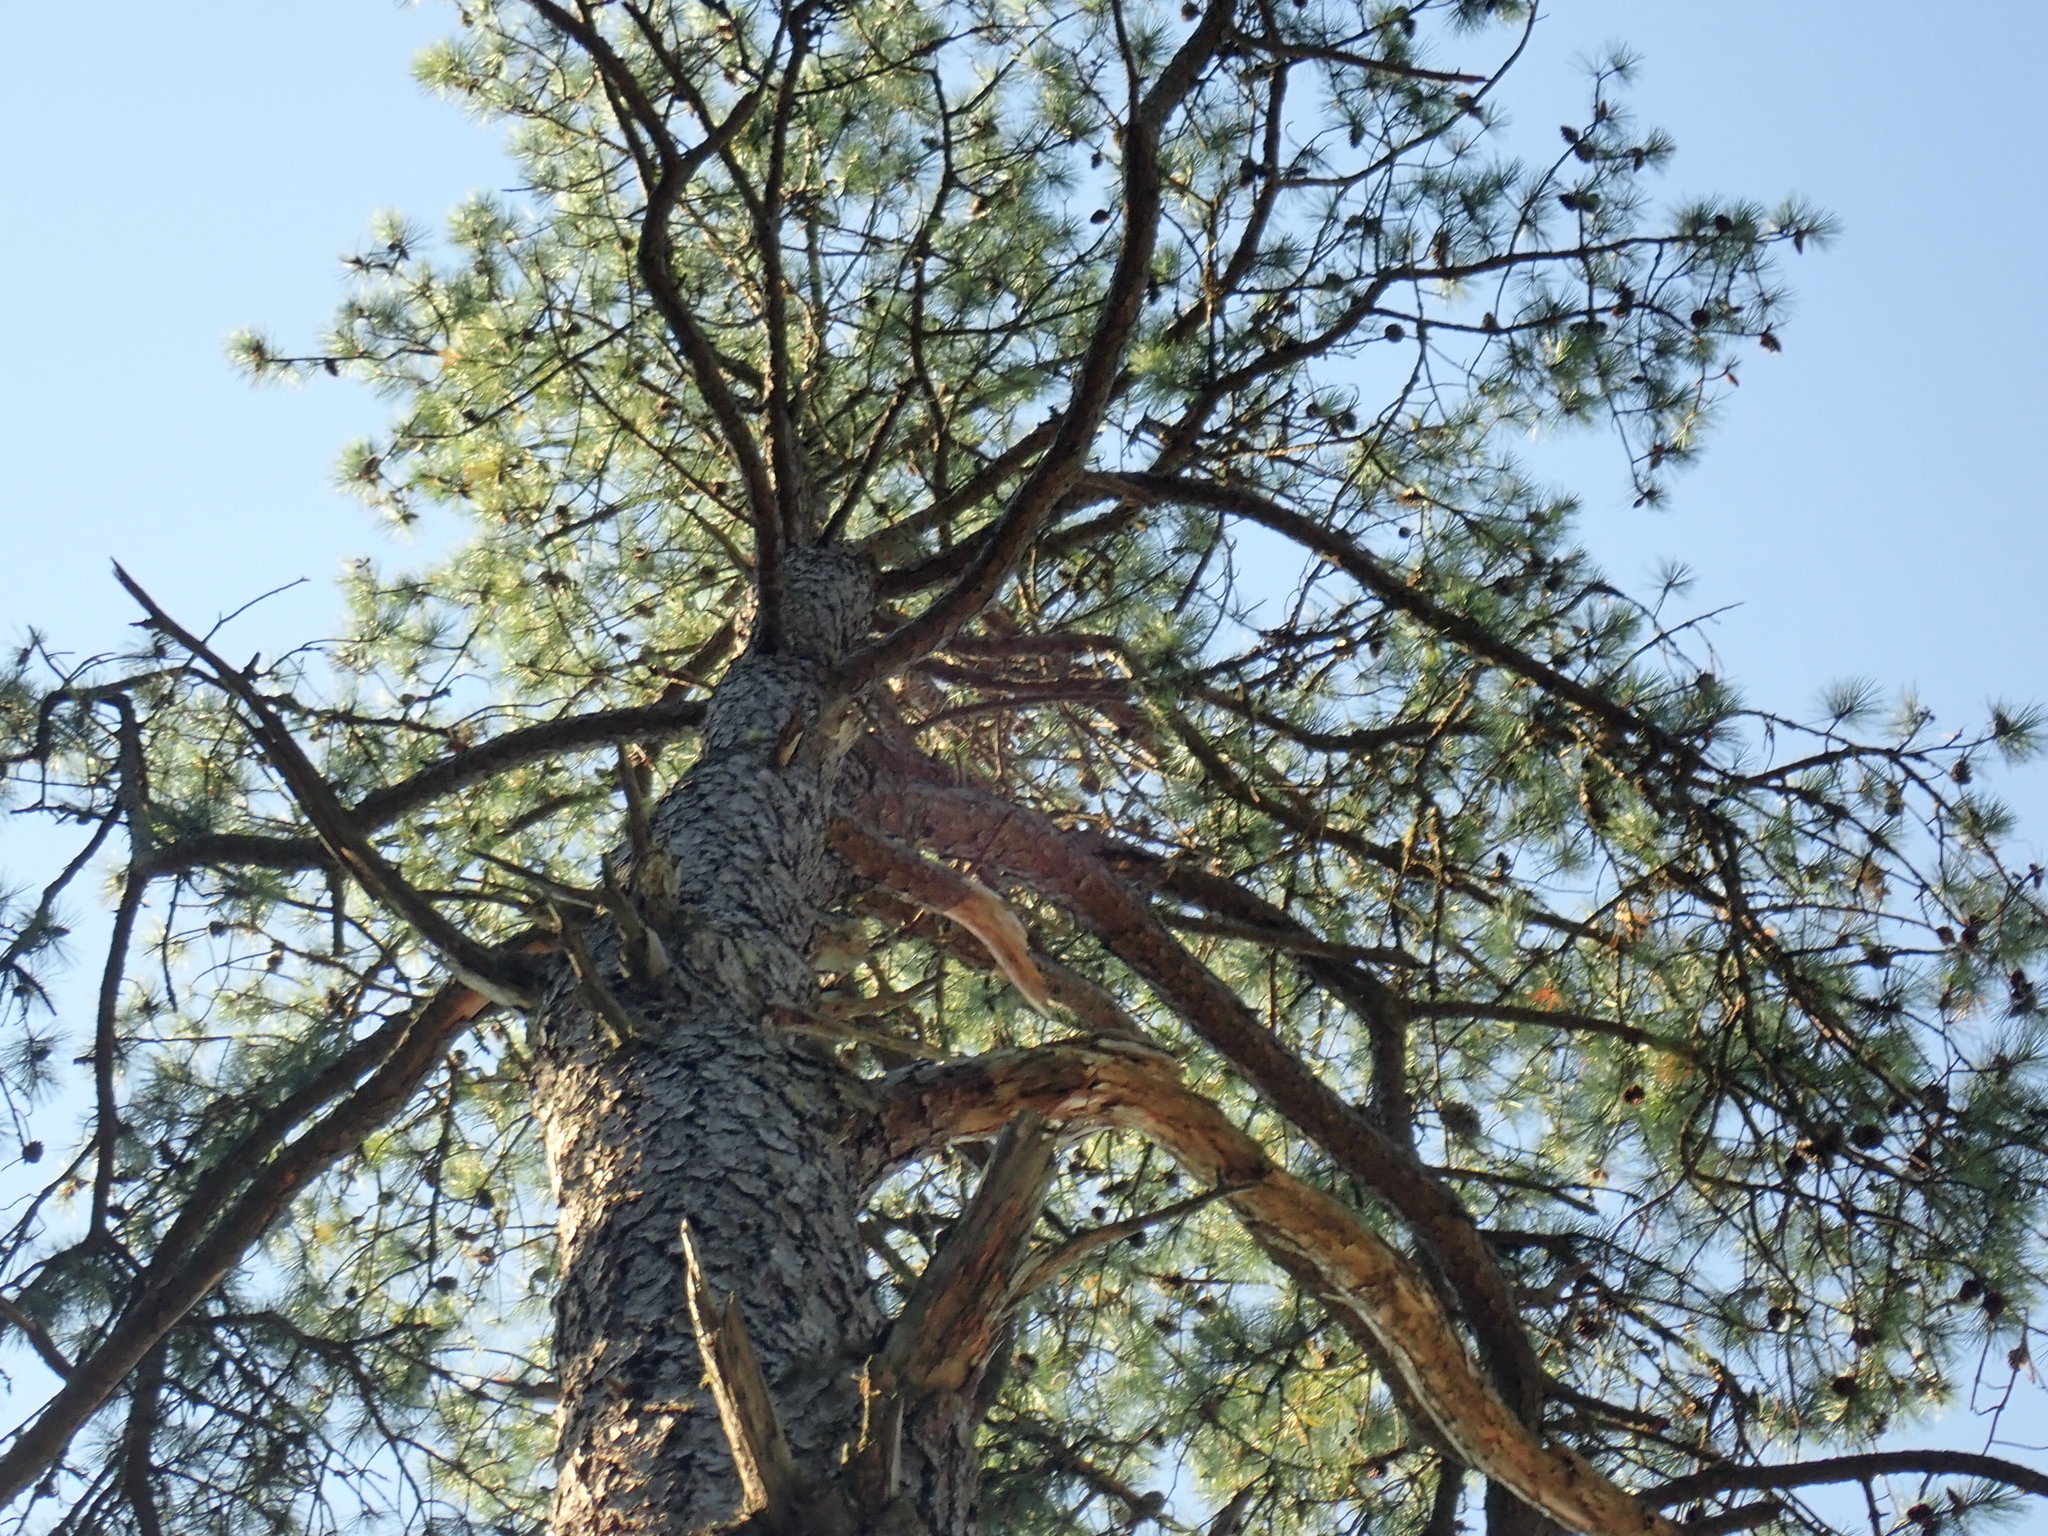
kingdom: Plantae
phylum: Tracheophyta
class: Pinopsida
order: Pinales
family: Pinaceae
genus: Pinus
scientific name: Pinus rigida
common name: Pitch pine
